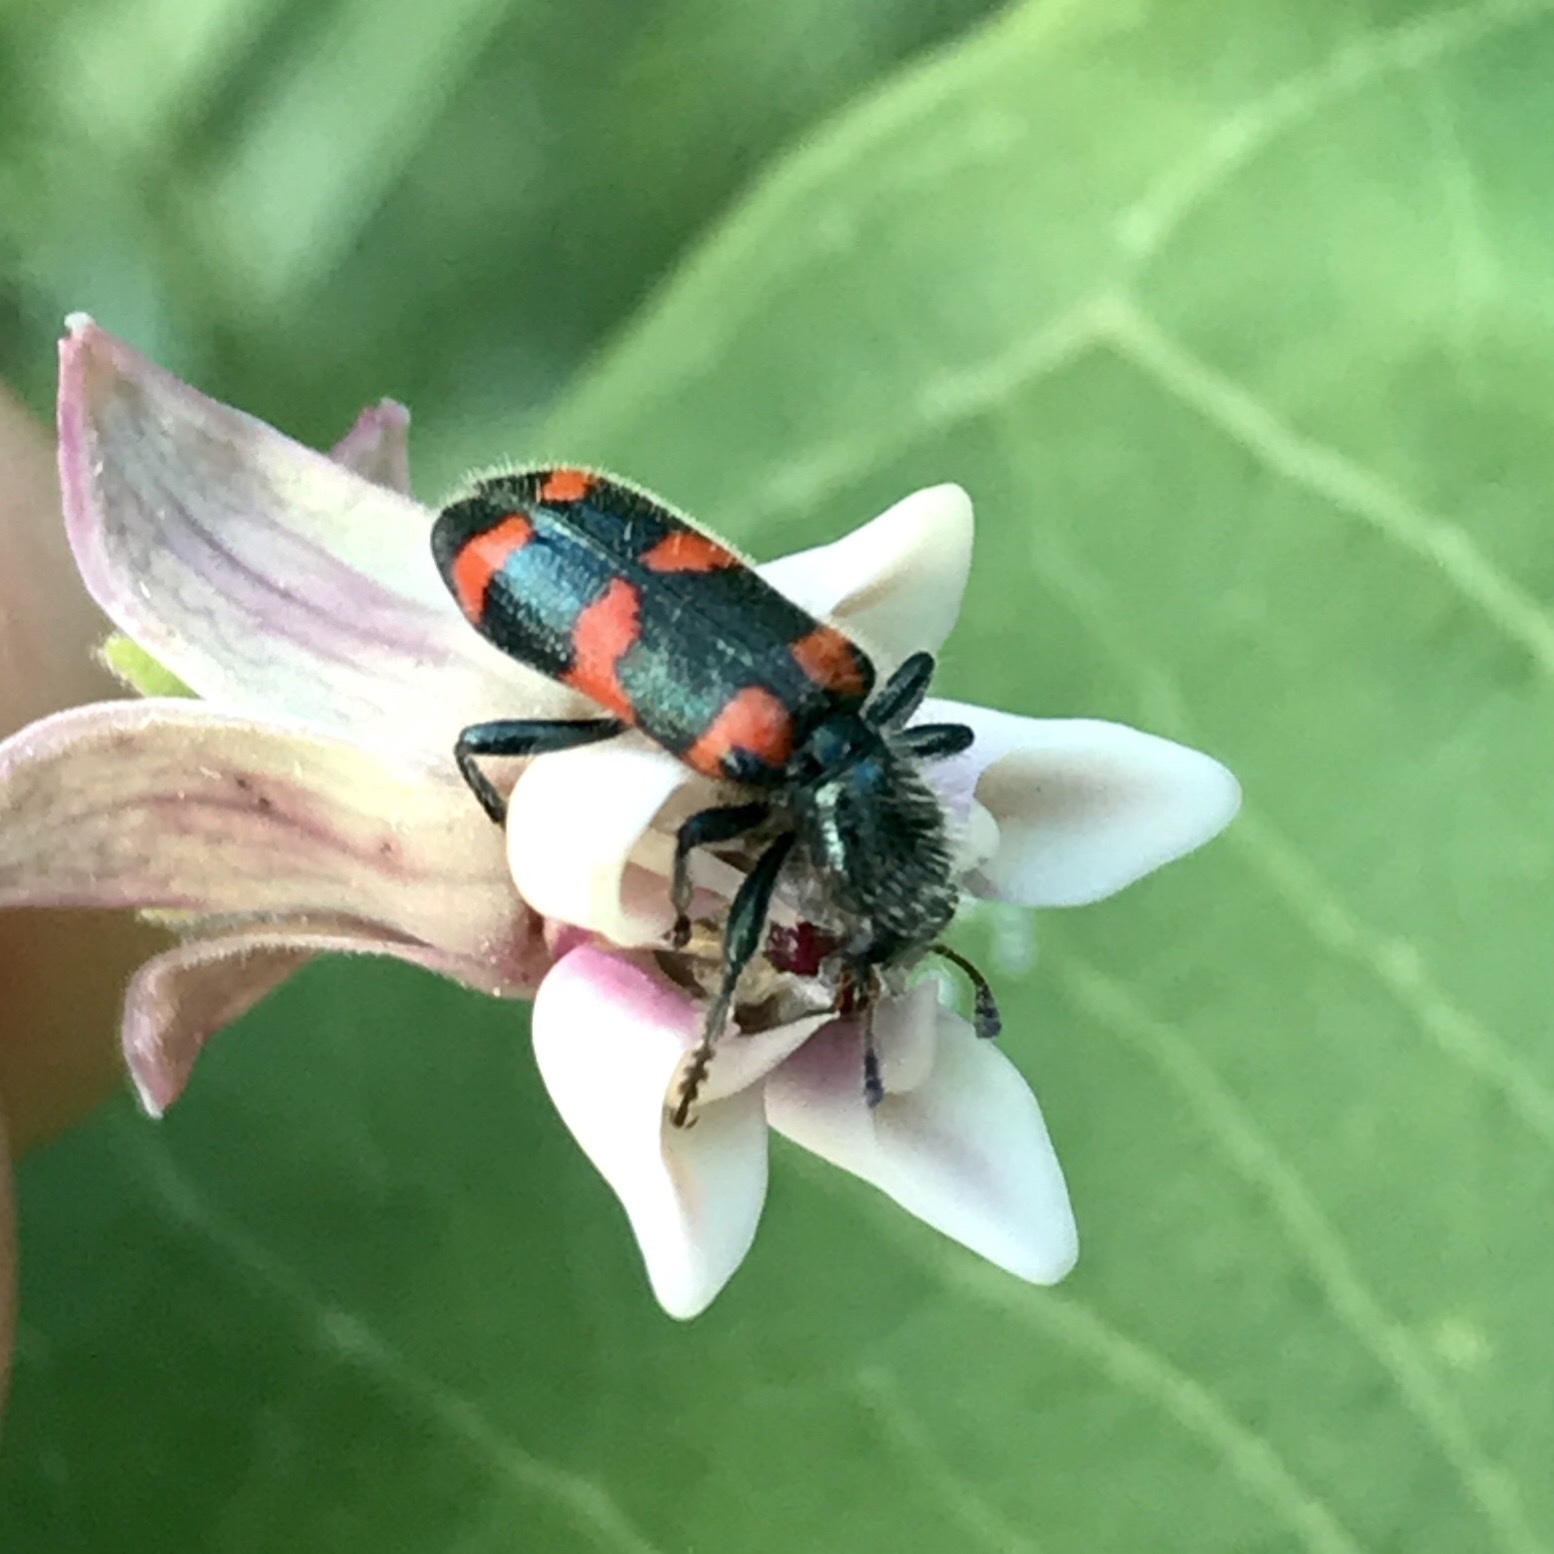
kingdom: Animalia
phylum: Arthropoda
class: Insecta
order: Coleoptera
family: Cleridae
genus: Trichodes
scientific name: Trichodes nutalli
